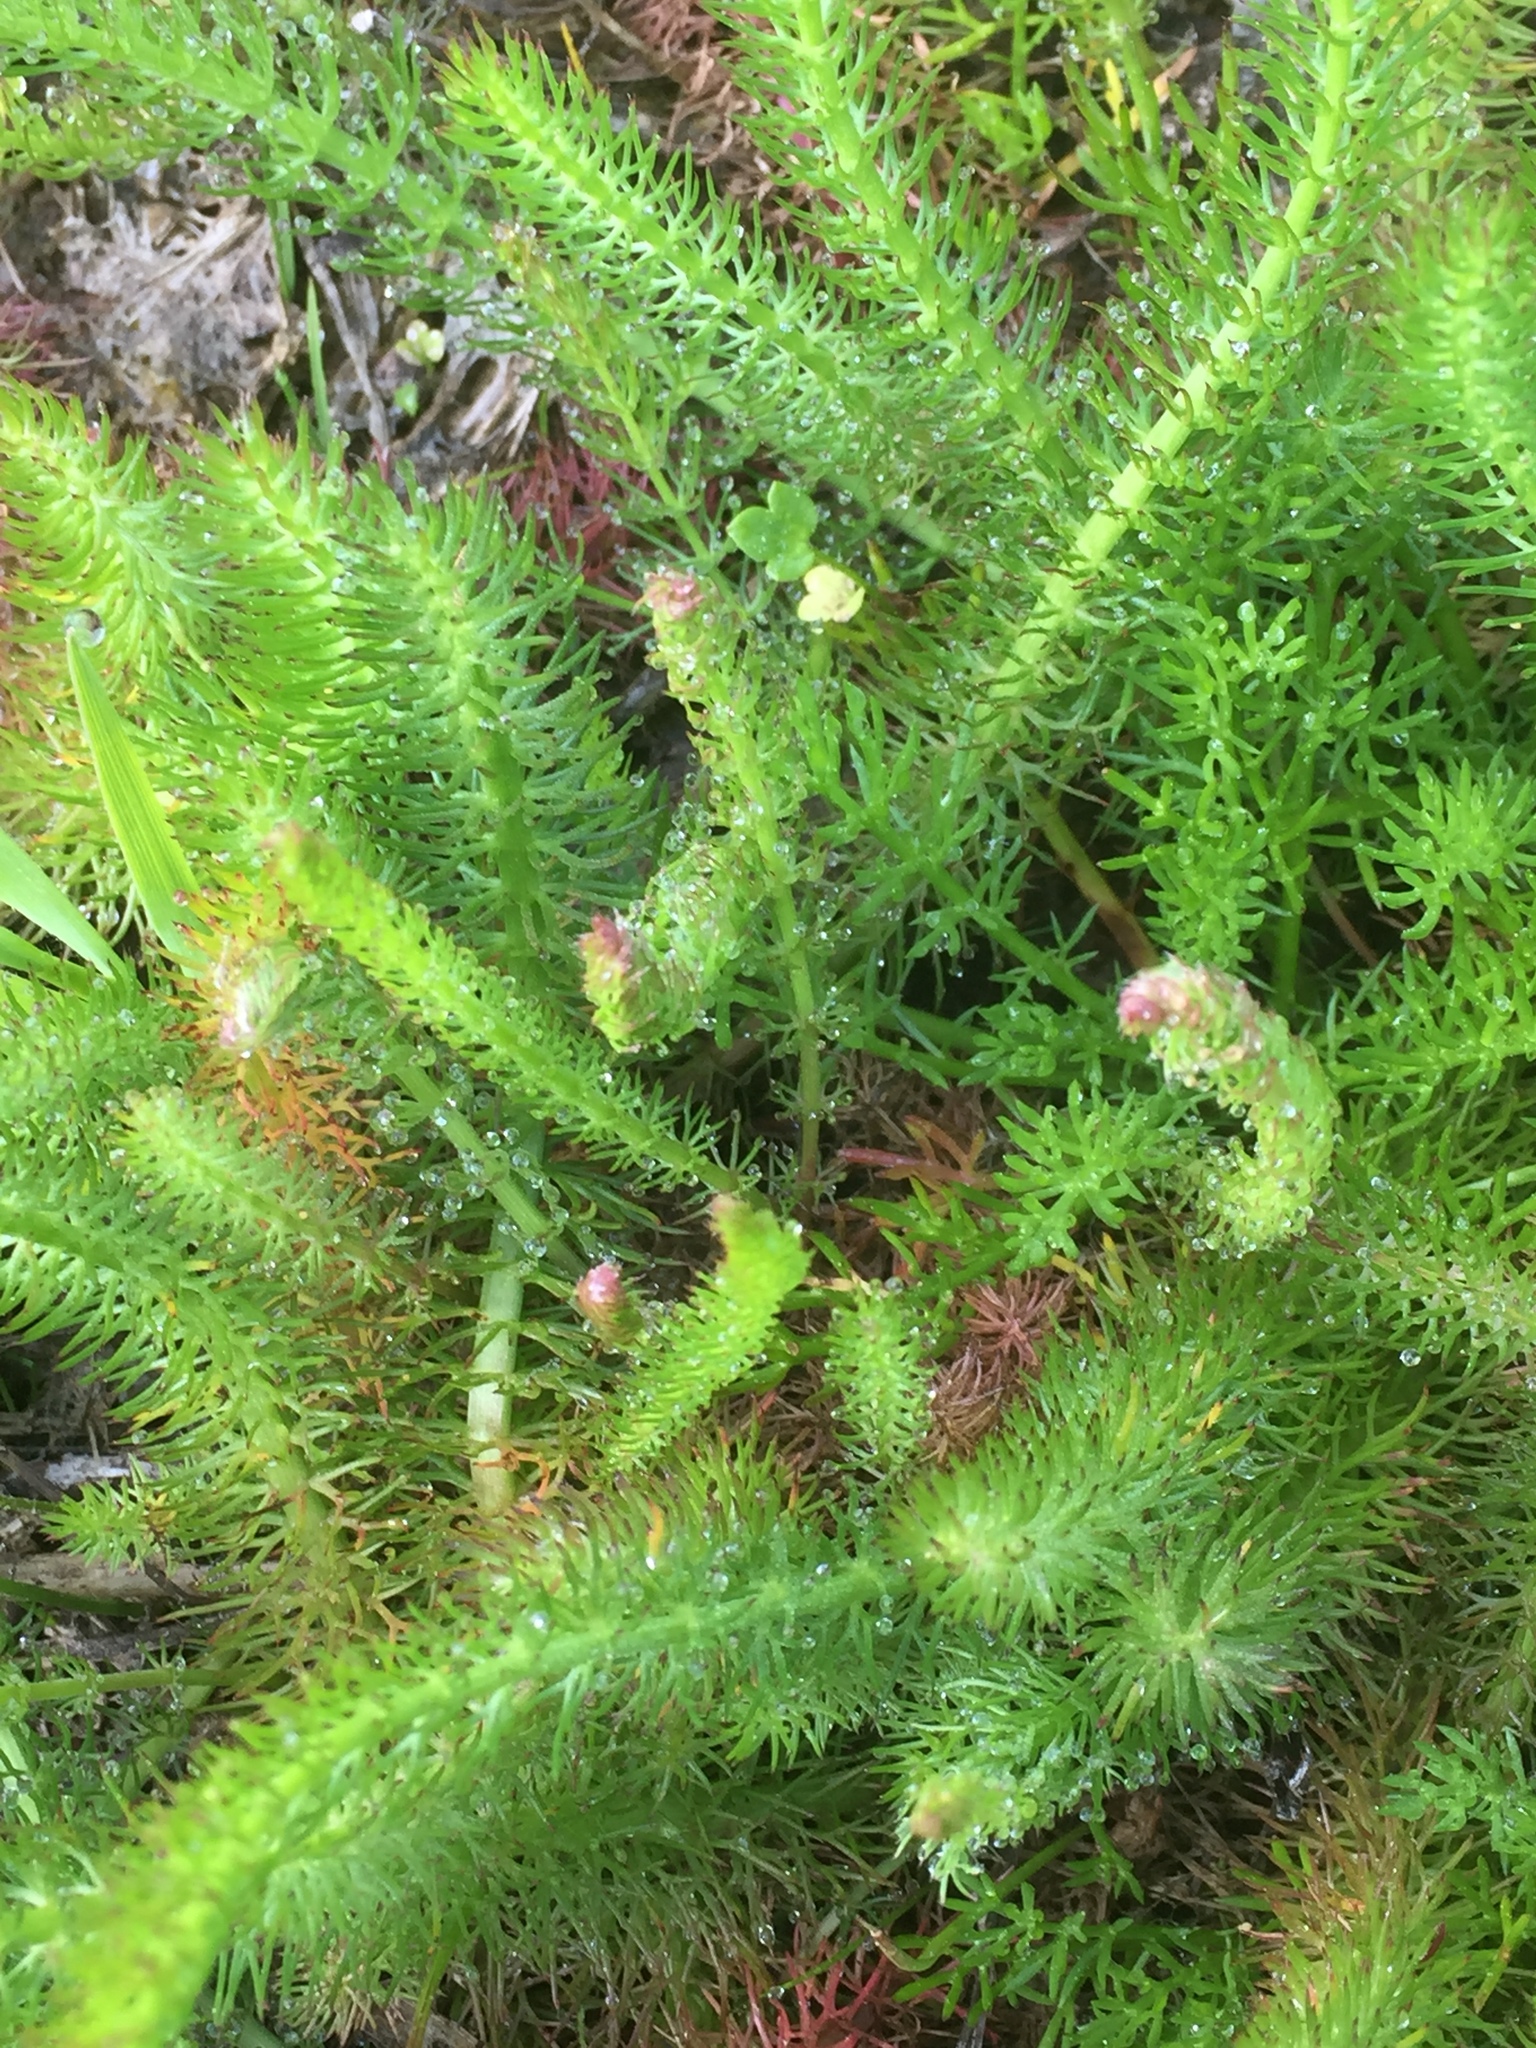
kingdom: Plantae
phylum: Tracheophyta
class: Magnoliopsida
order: Apiales
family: Apiaceae
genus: Trocdaris
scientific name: Trocdaris verticillatum
